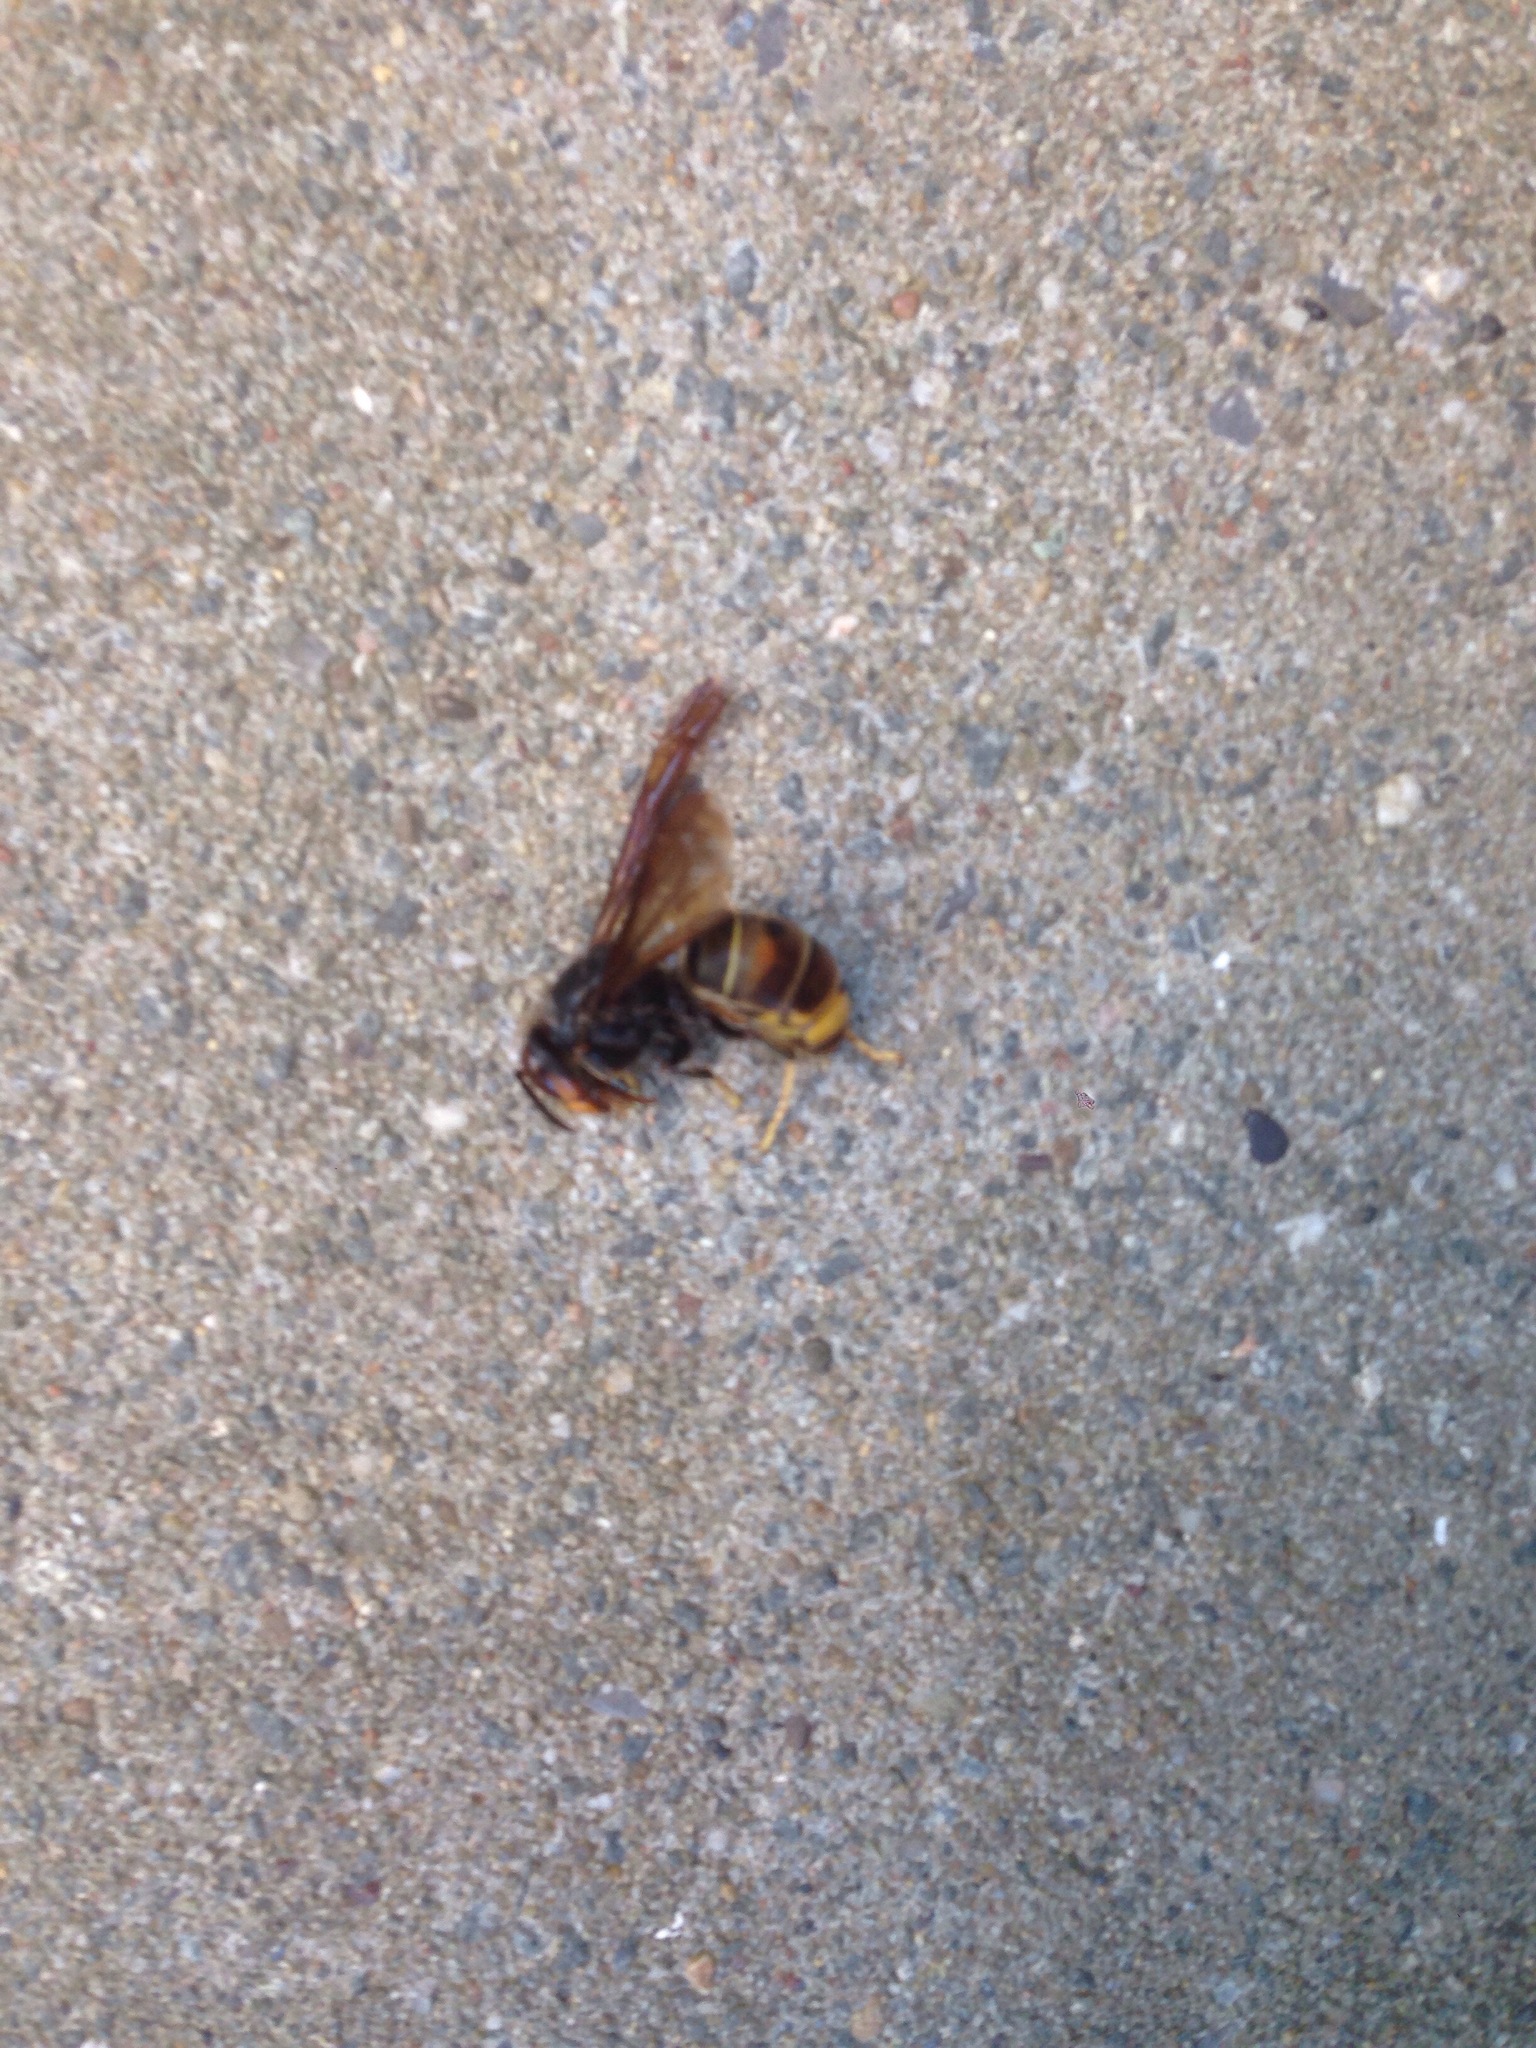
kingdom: Animalia
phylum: Arthropoda
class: Insecta
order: Hymenoptera
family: Vespidae
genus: Vespa
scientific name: Vespa velutina
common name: Asian hornet
